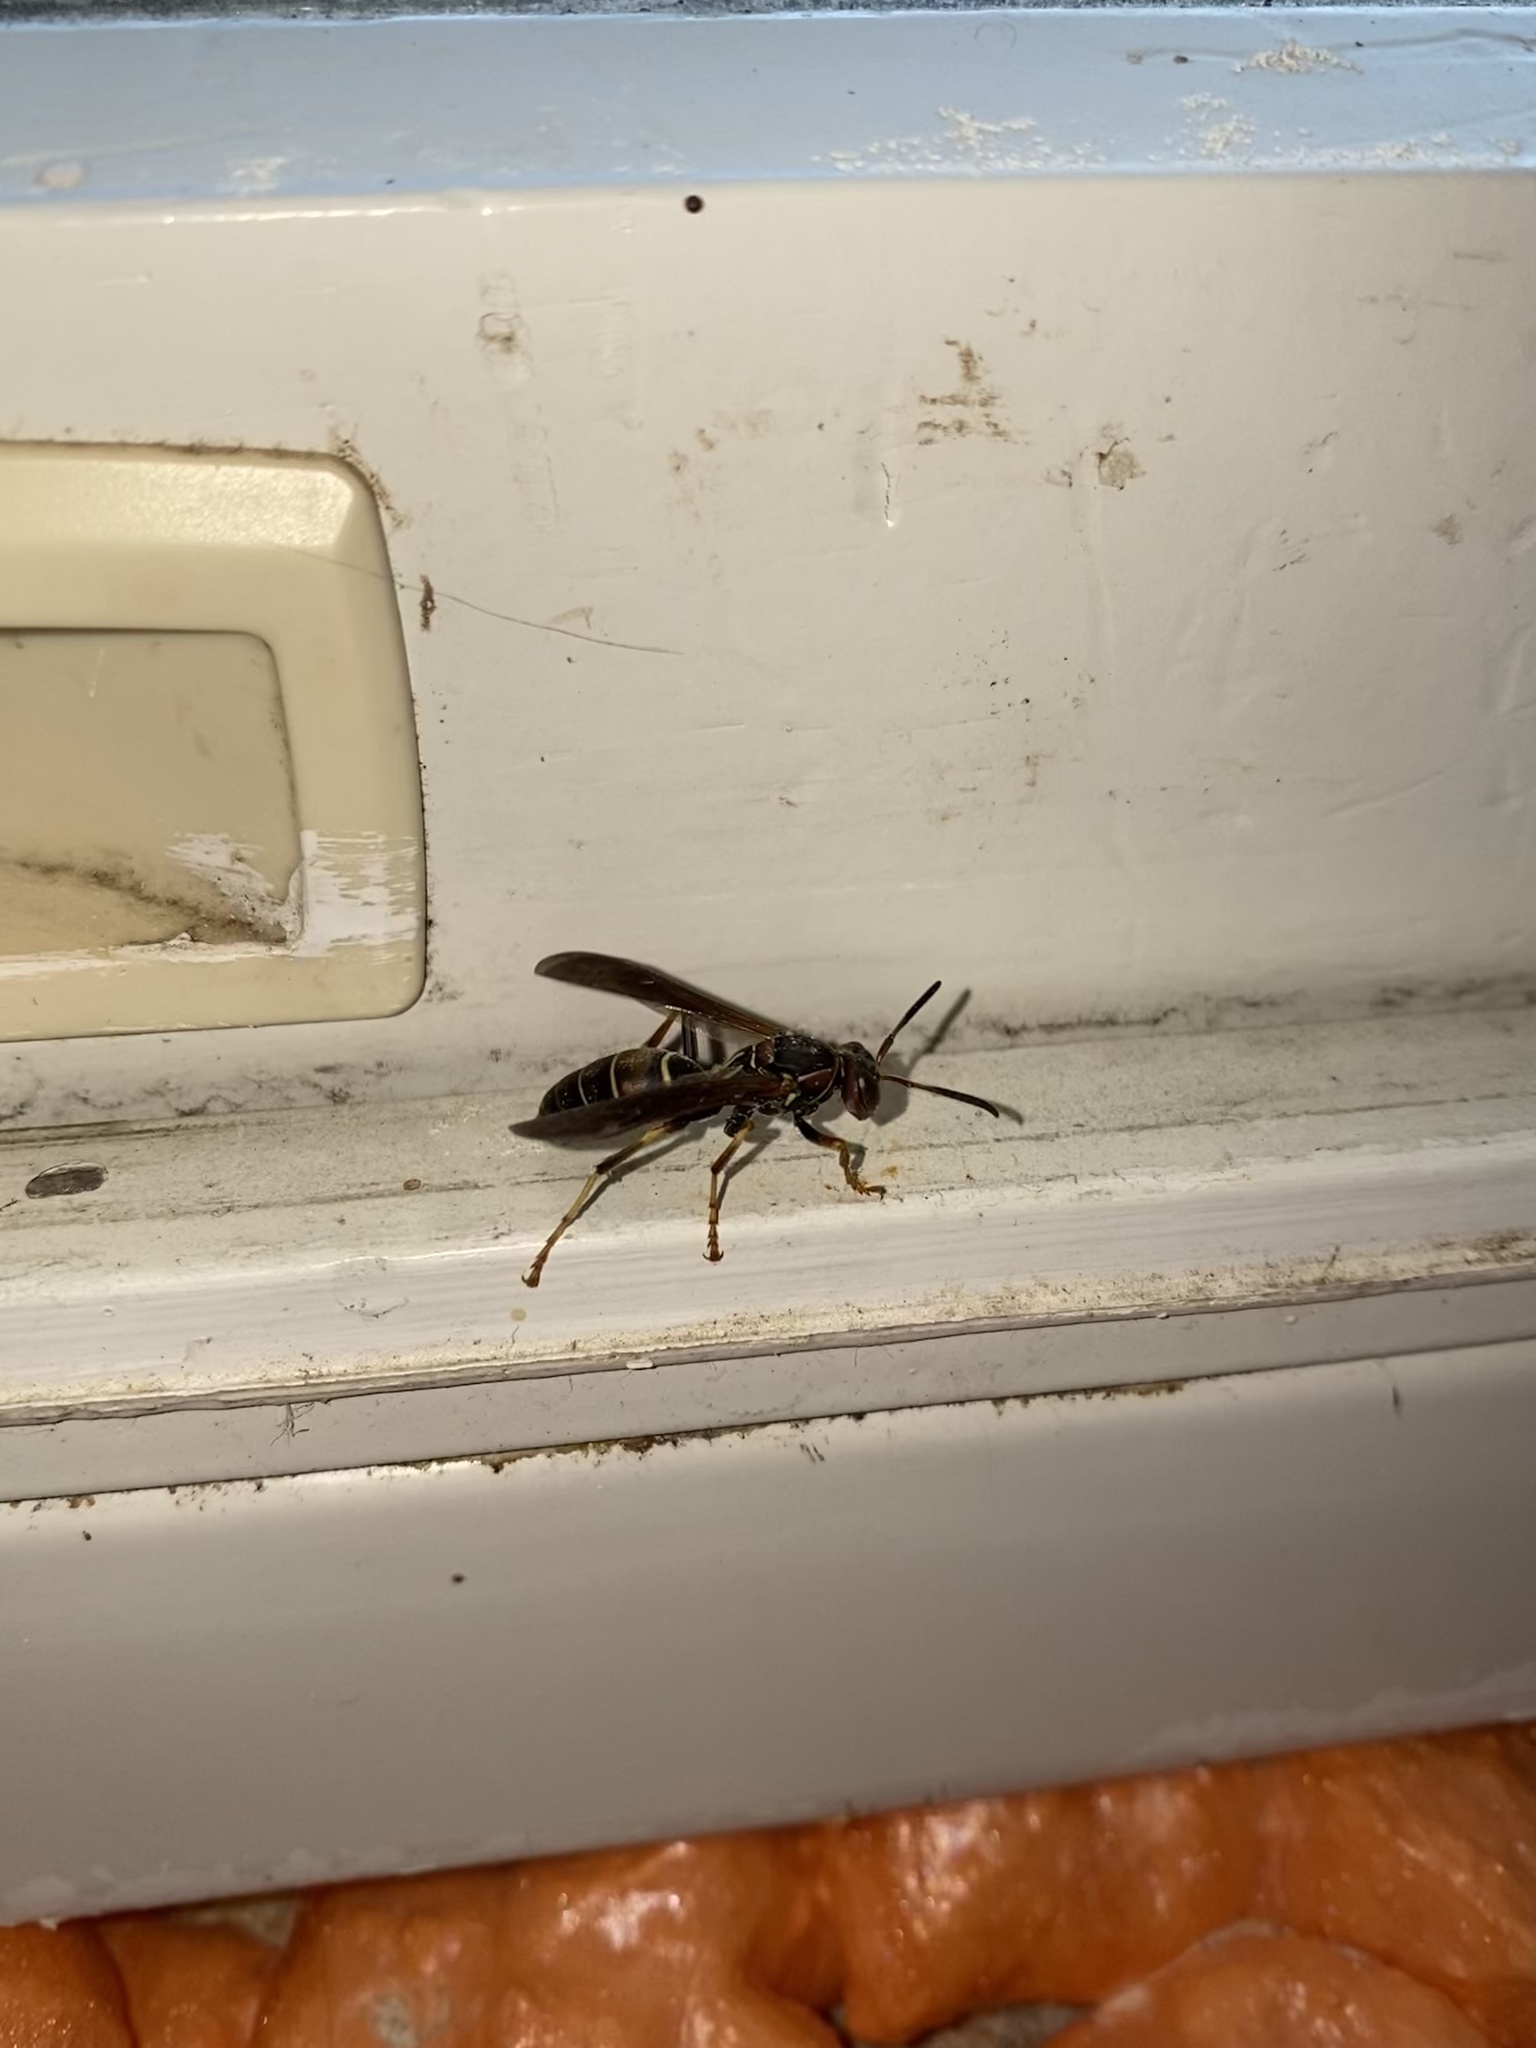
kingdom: Animalia
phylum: Arthropoda
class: Insecta
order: Hymenoptera
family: Eumenidae
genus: Polistes
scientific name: Polistes fuscatus
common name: Dark paper wasp
